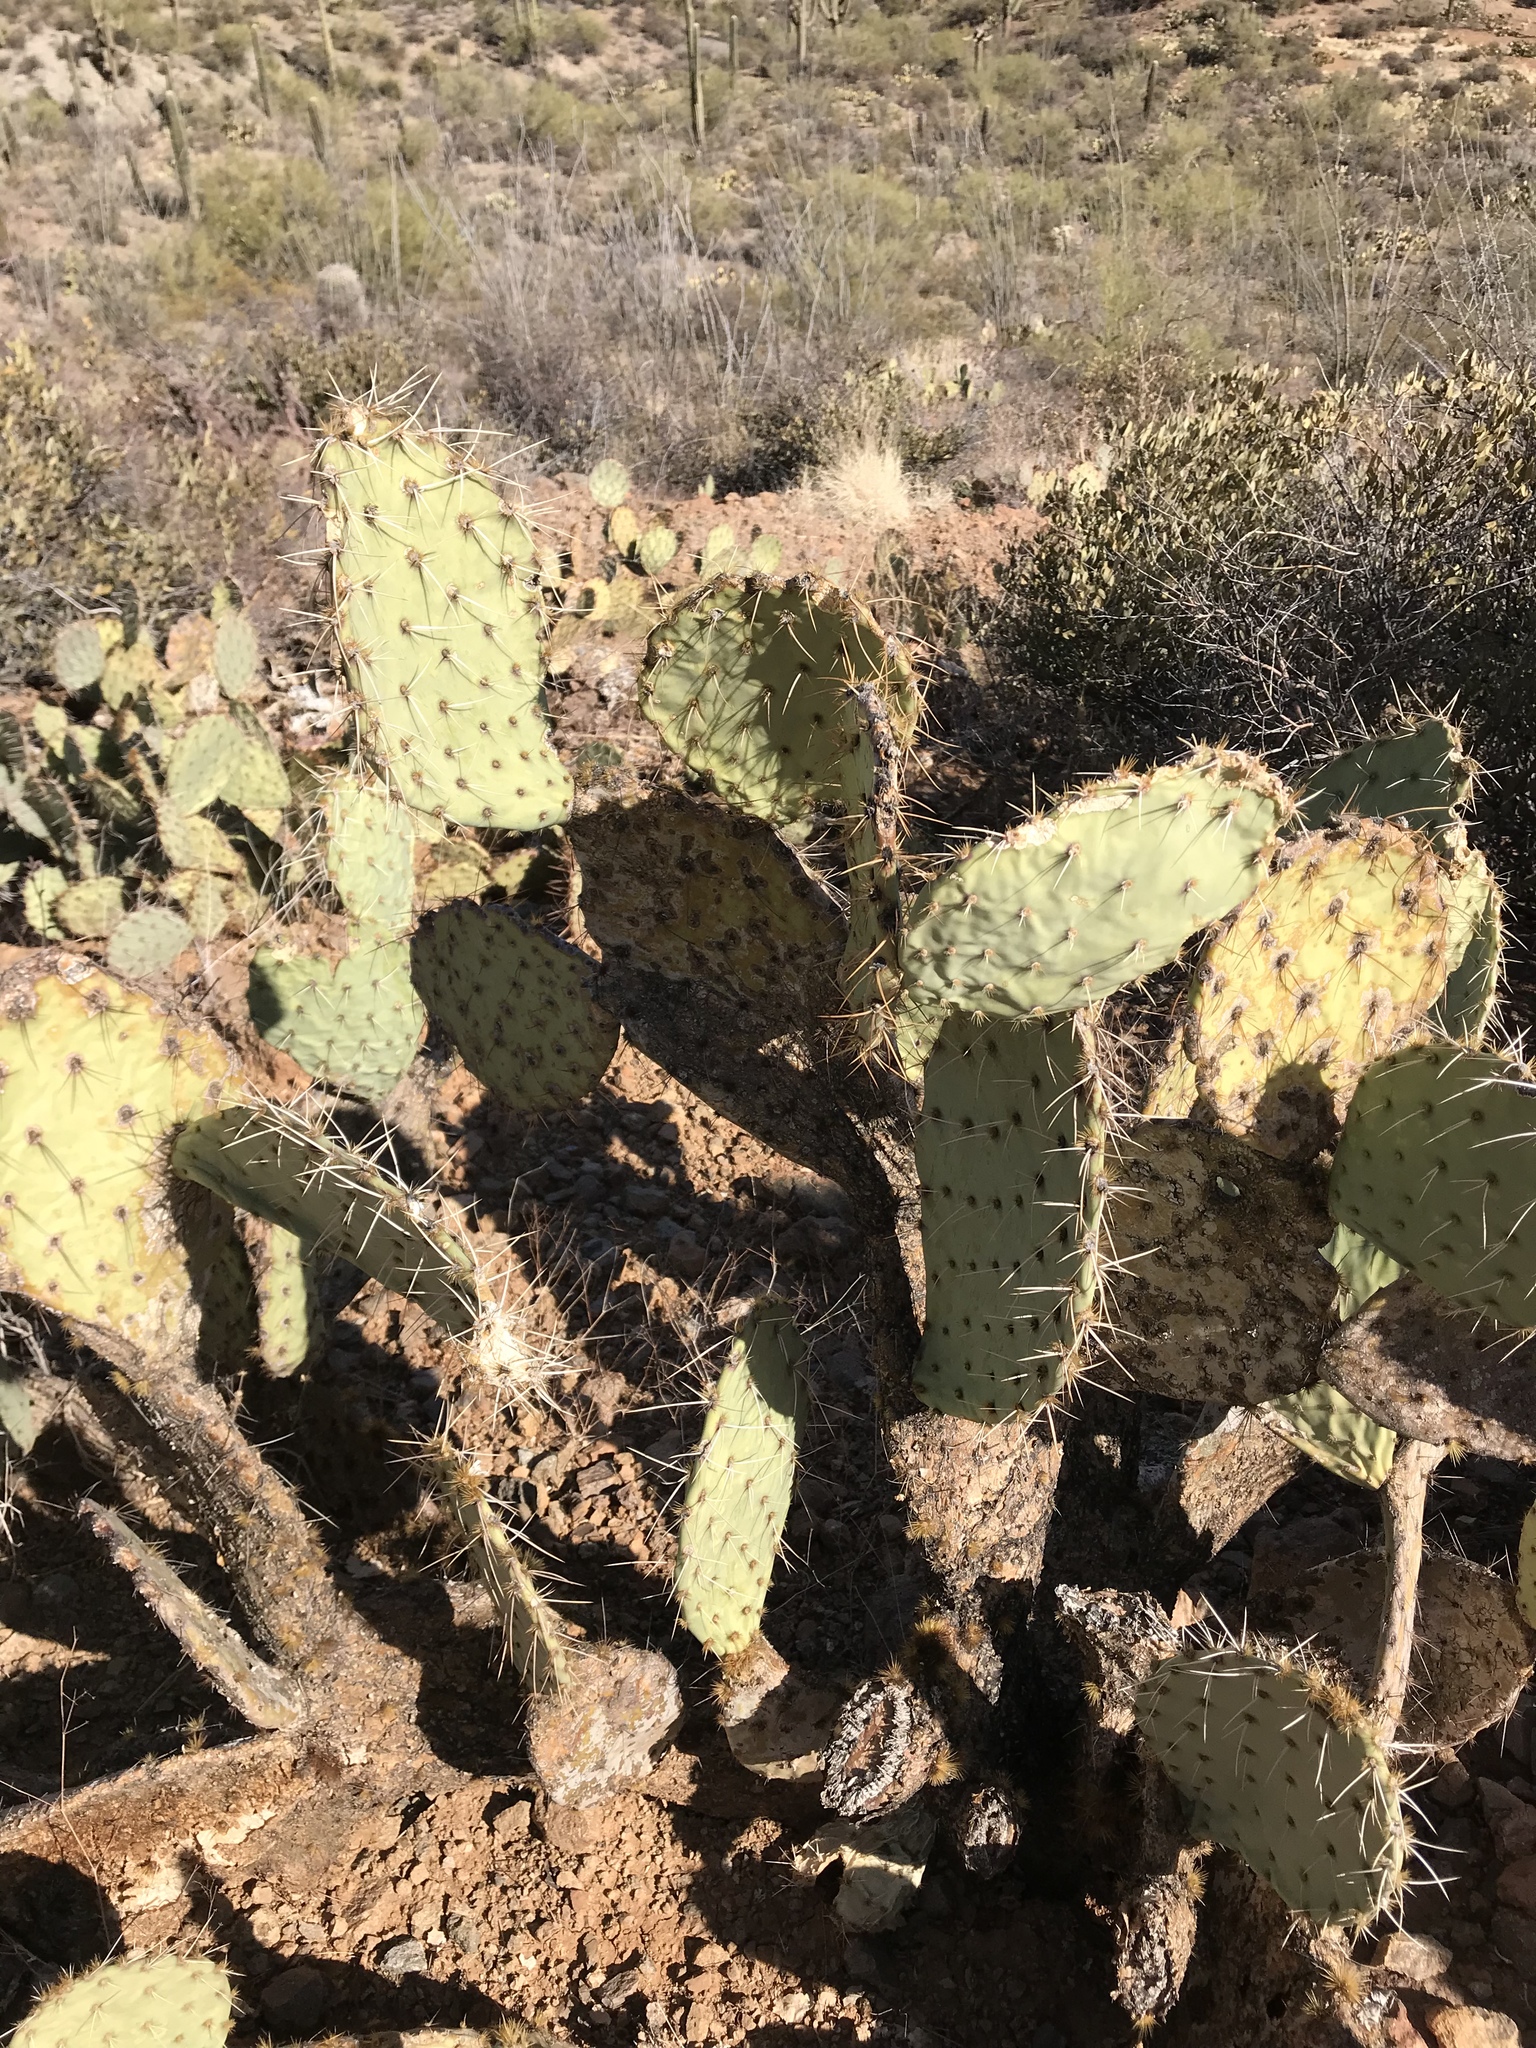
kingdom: Plantae
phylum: Tracheophyta
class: Magnoliopsida
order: Caryophyllales
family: Cactaceae
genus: Opuntia
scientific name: Opuntia engelmannii
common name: Cactus-apple
